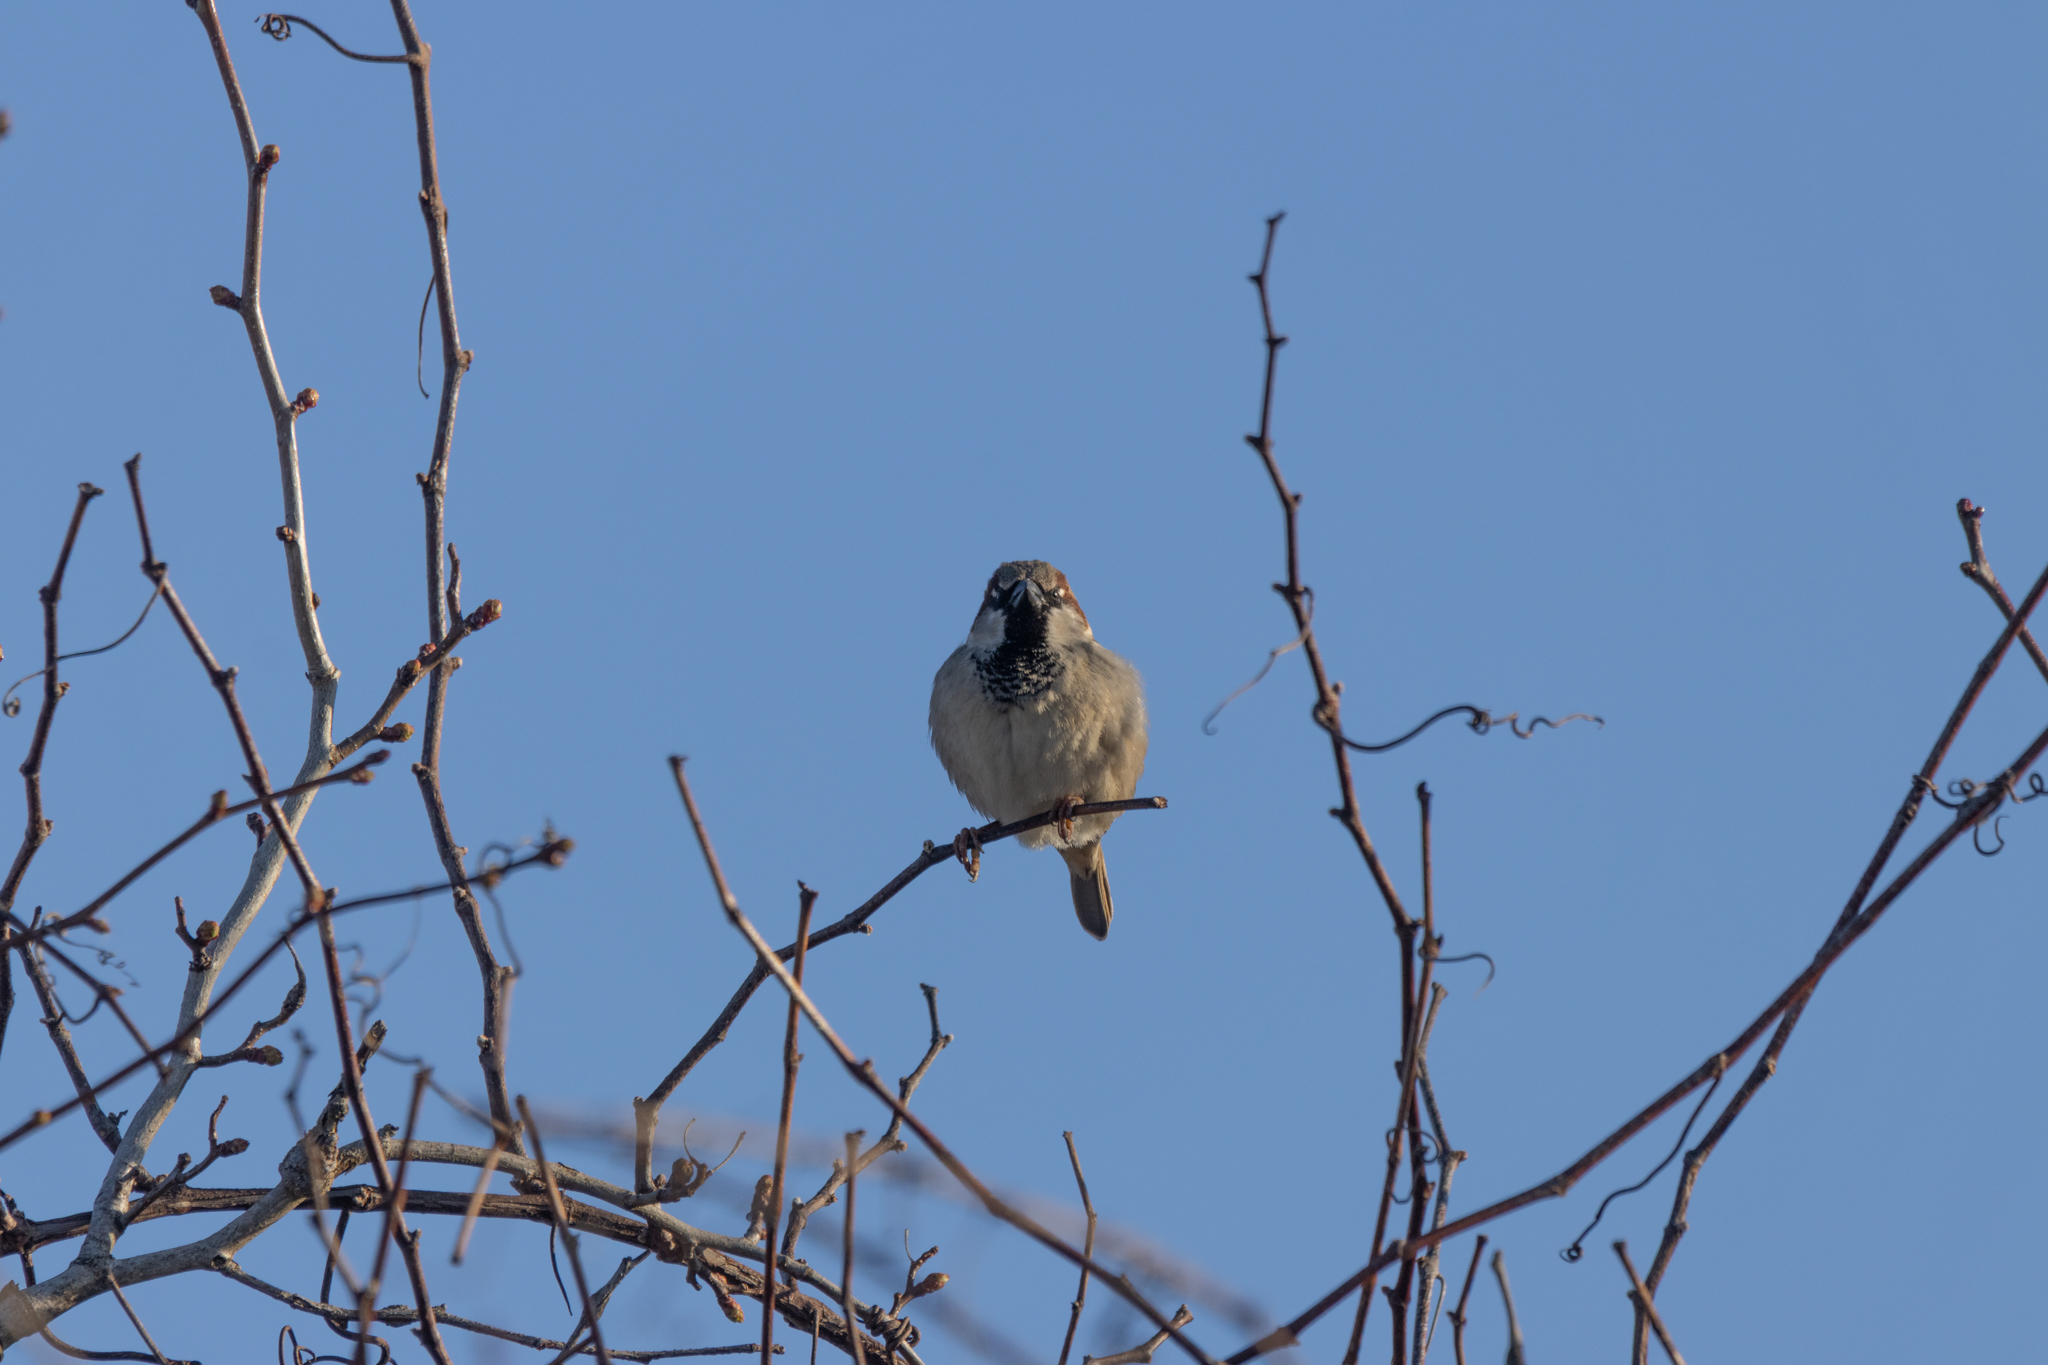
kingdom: Animalia
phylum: Chordata
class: Aves
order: Passeriformes
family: Passeridae
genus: Passer
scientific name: Passer domesticus
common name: House sparrow
